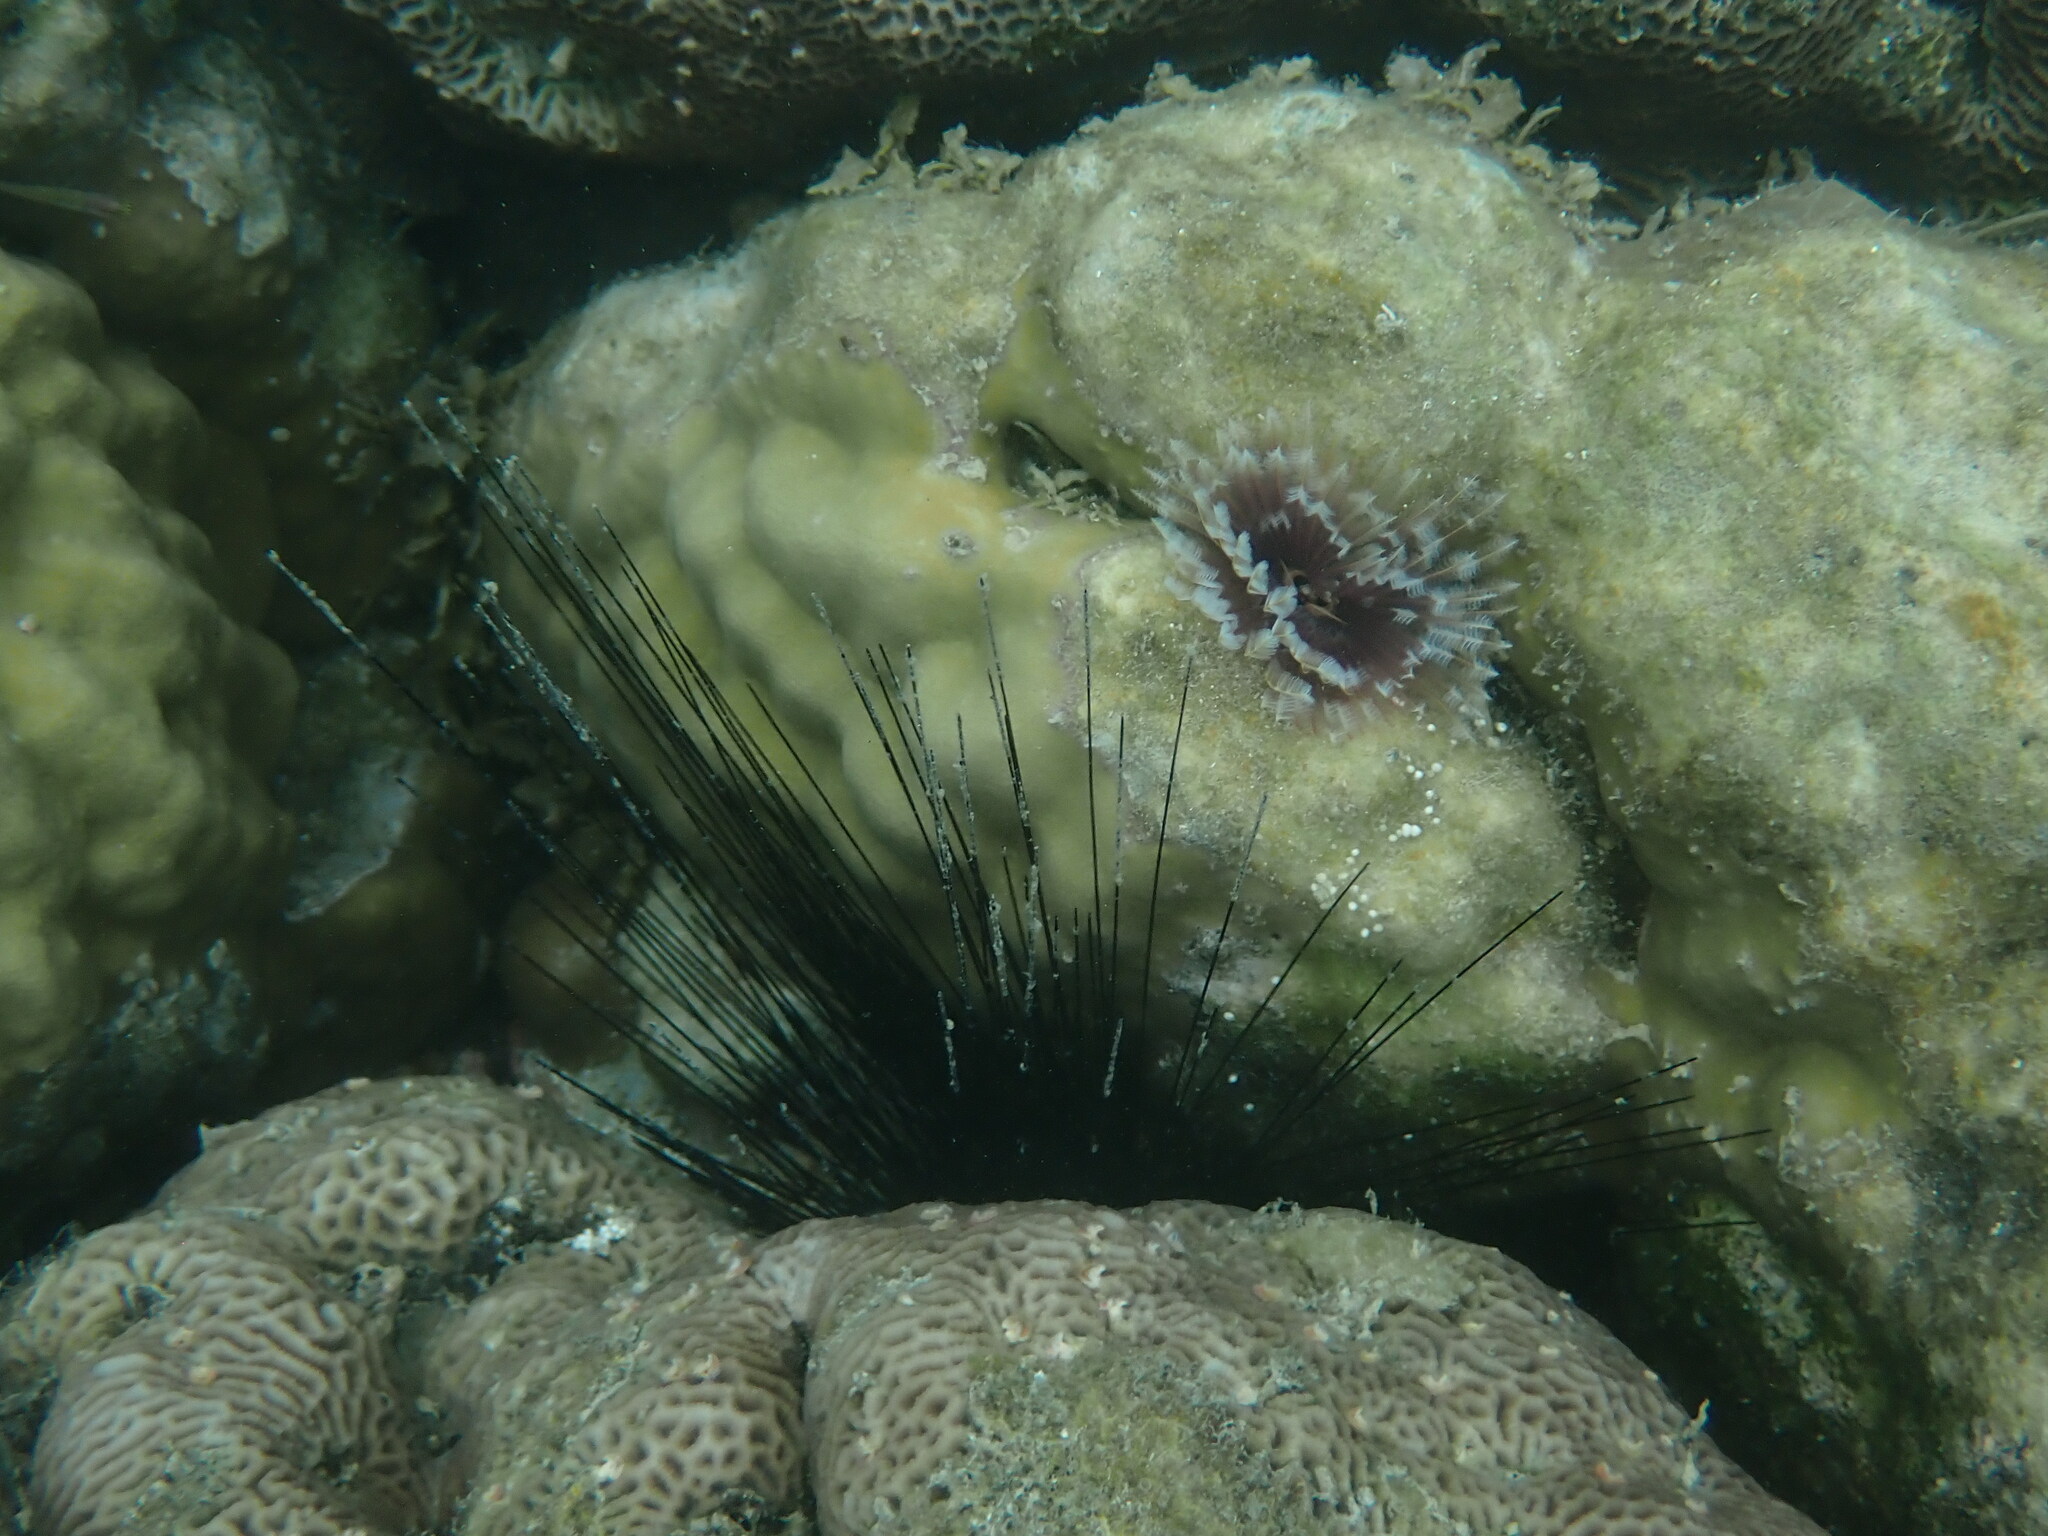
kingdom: Animalia
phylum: Echinodermata
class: Echinoidea
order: Diadematoida
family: Diadematidae
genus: Diadema
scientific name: Diadema setosum
